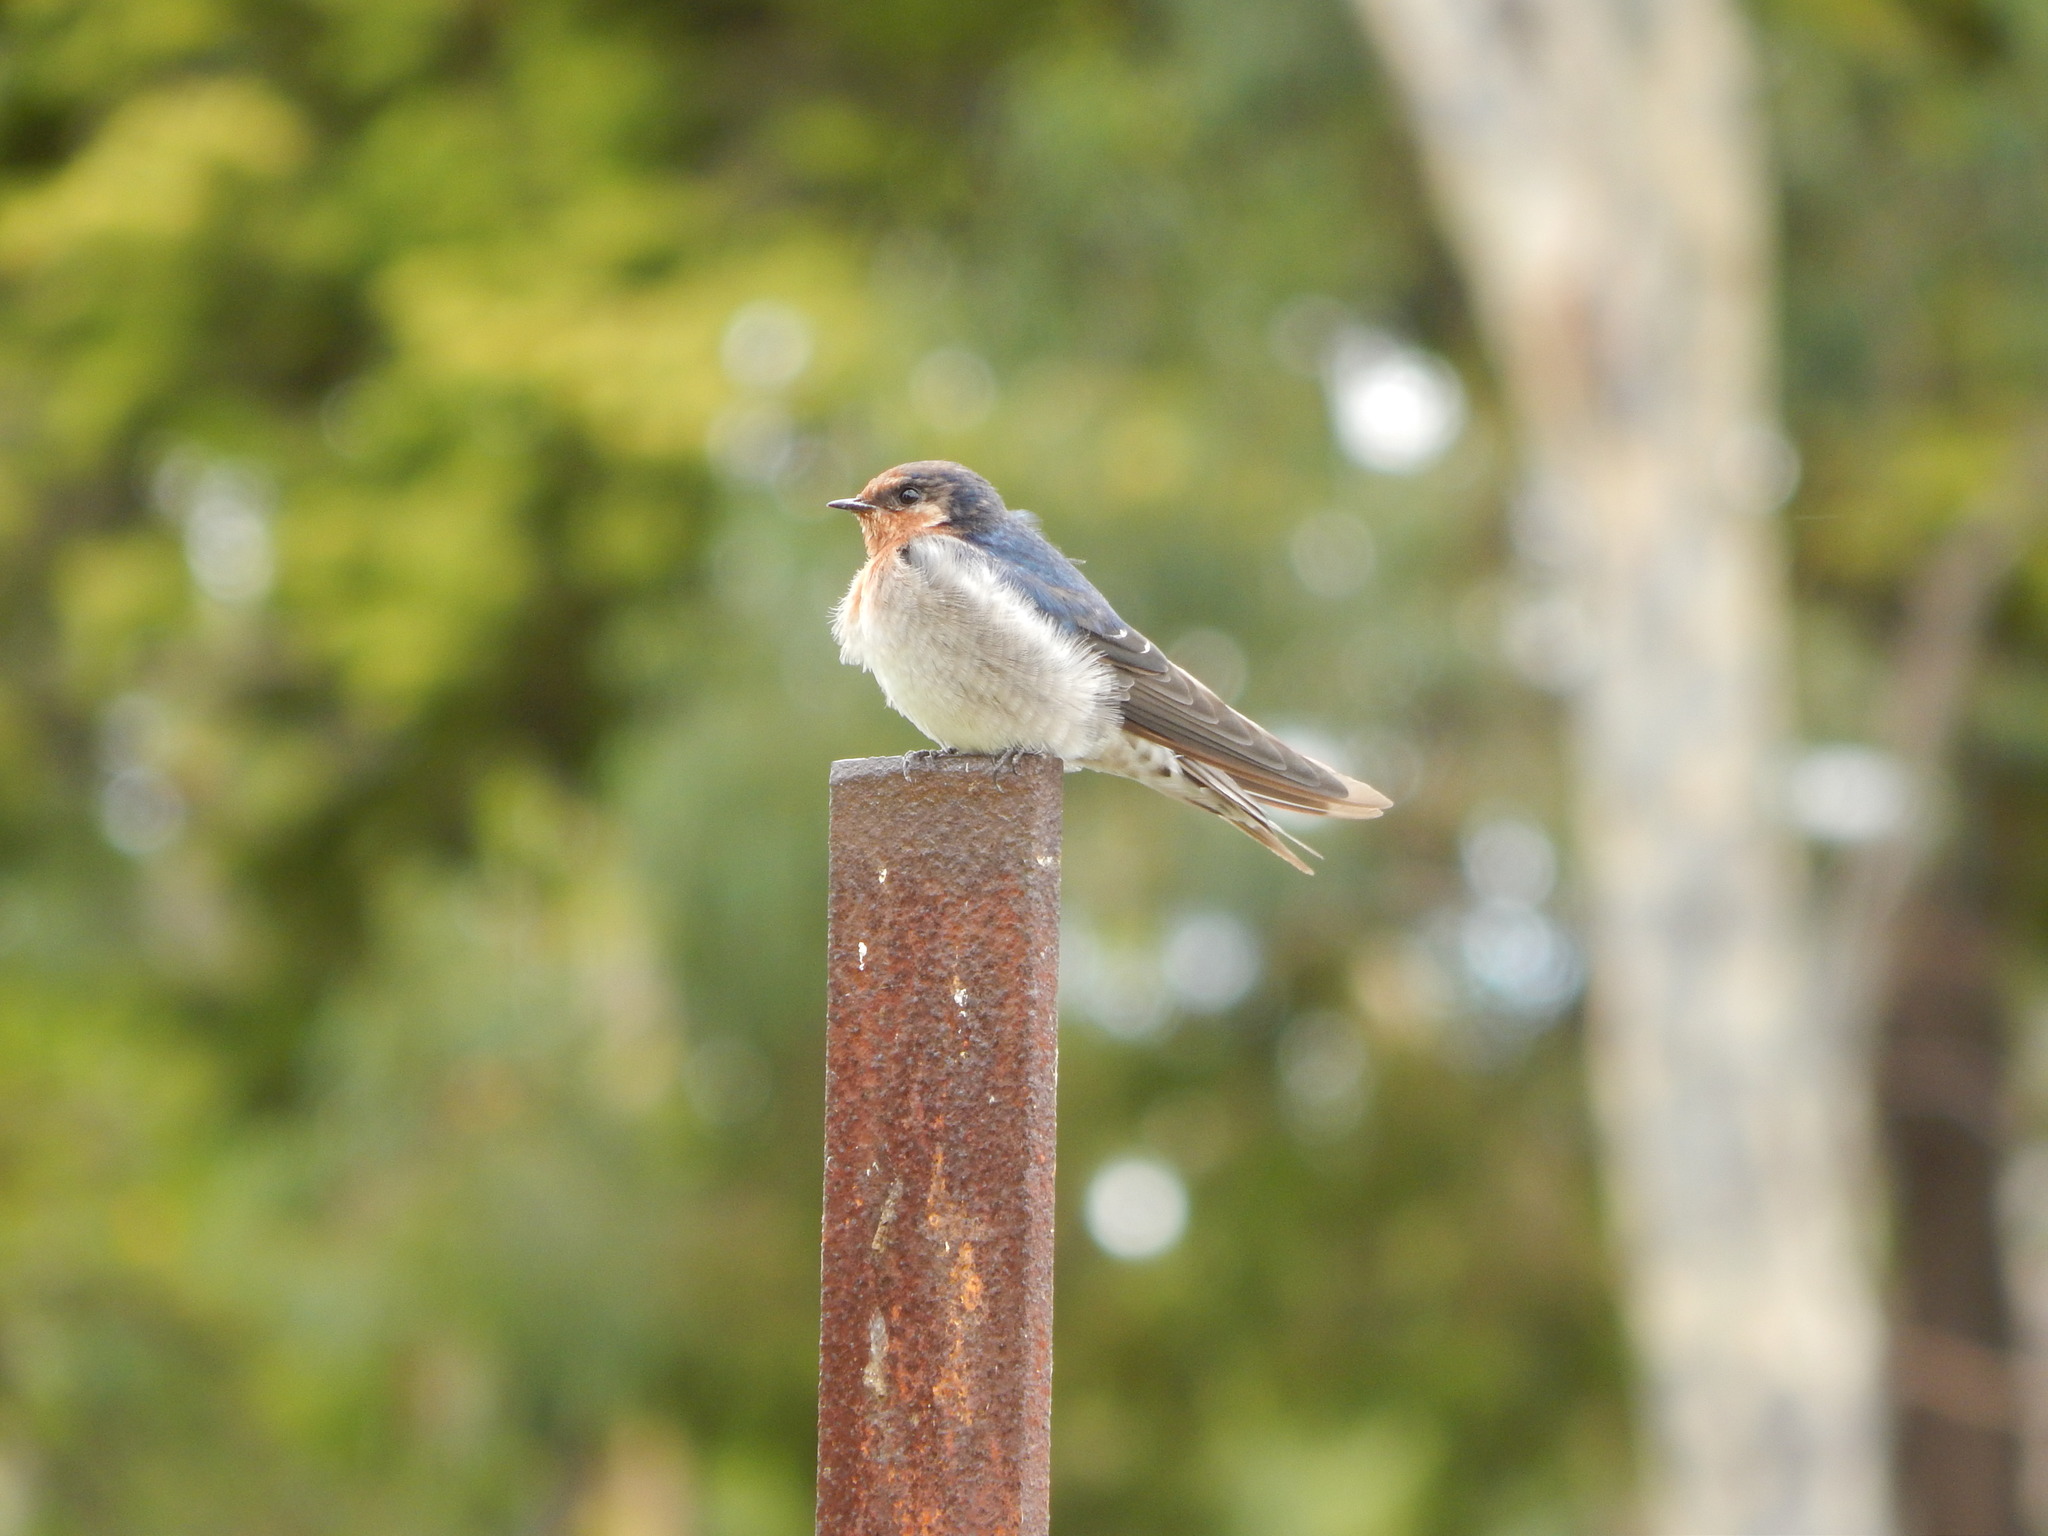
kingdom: Animalia
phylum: Chordata
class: Aves
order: Passeriformes
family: Hirundinidae
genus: Hirundo
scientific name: Hirundo neoxena
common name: Welcome swallow
